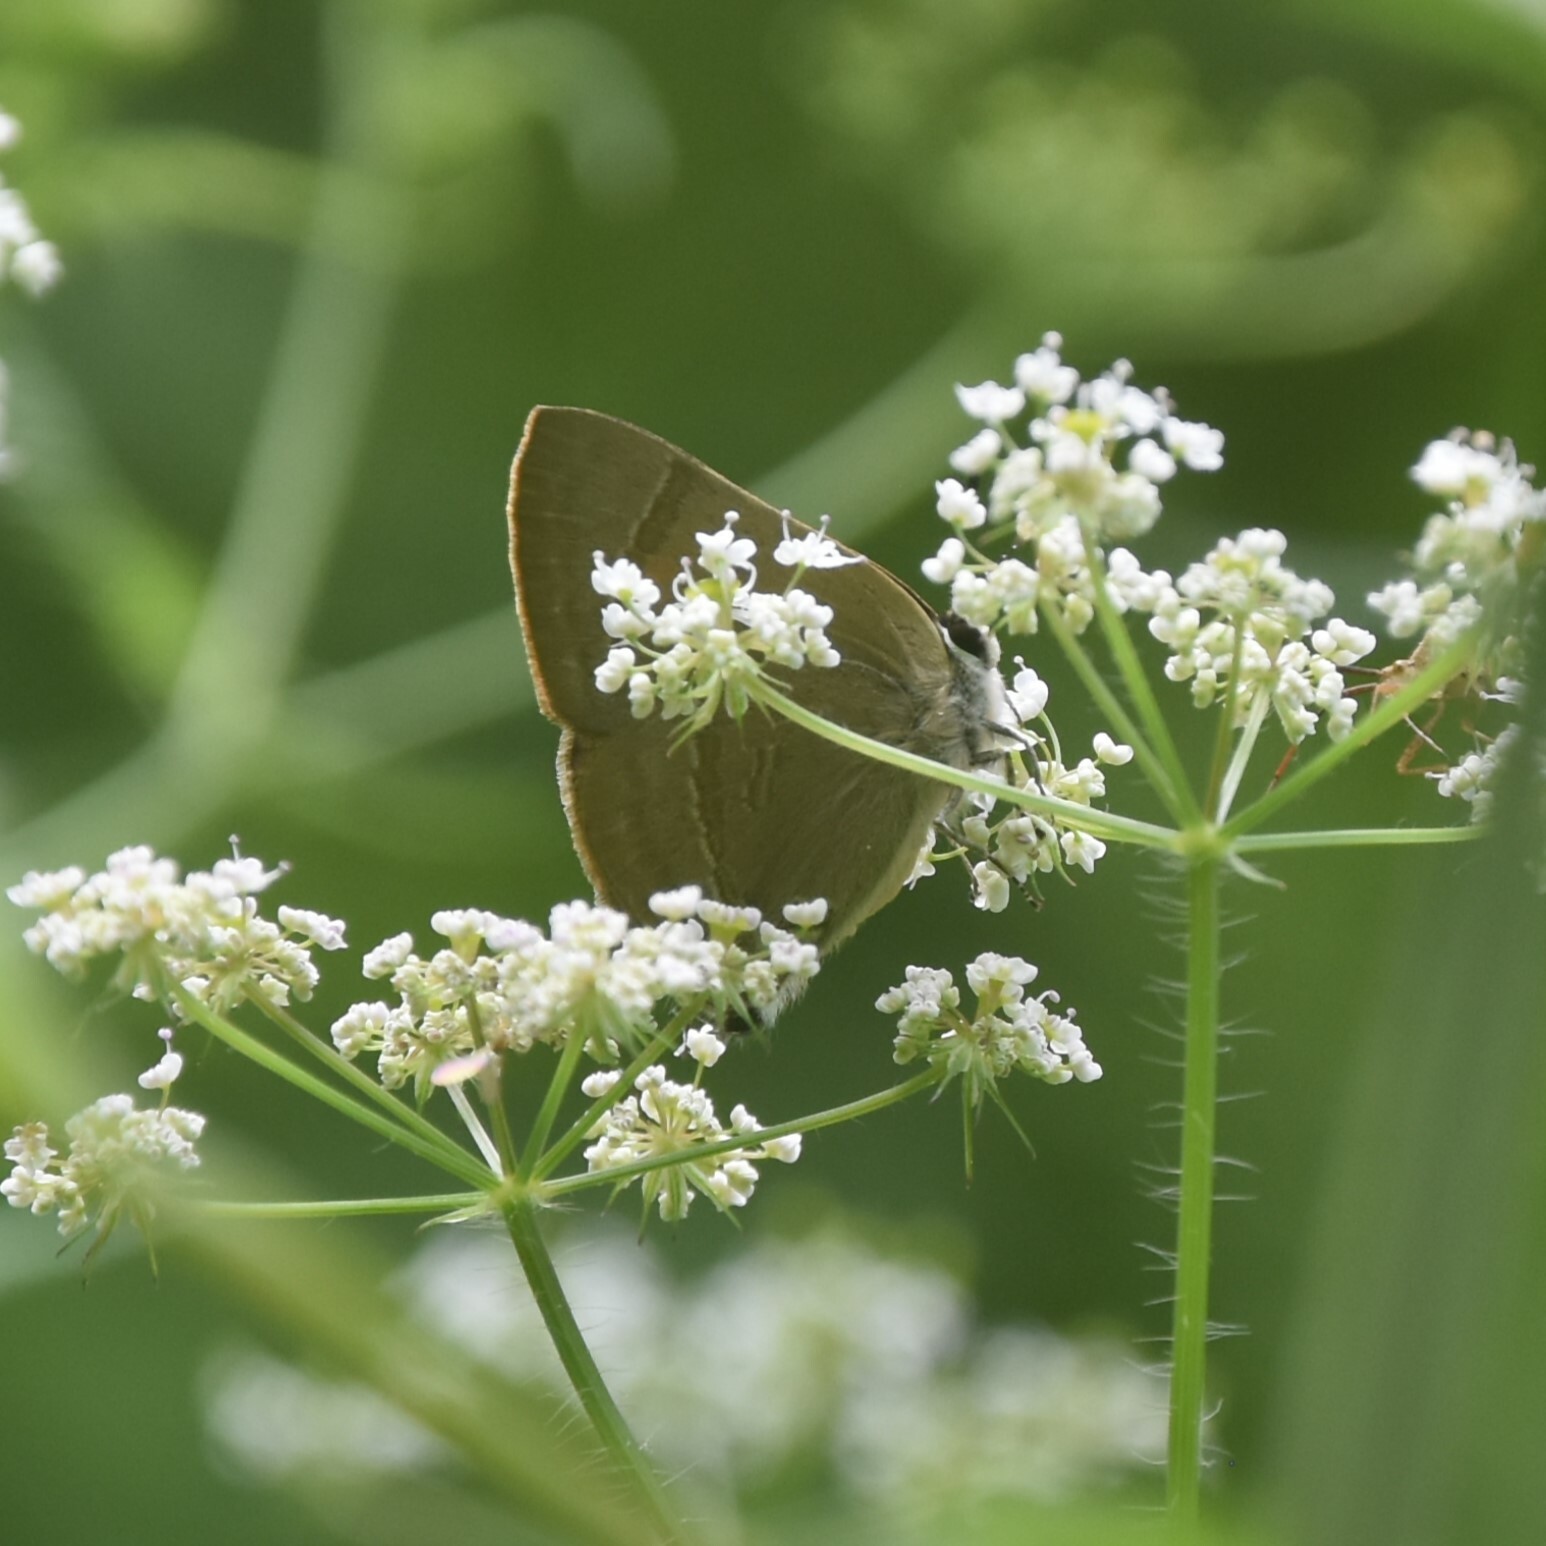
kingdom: Animalia
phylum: Arthropoda
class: Insecta
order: Lepidoptera
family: Lycaenidae
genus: Rapala
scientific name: Rapala selira
